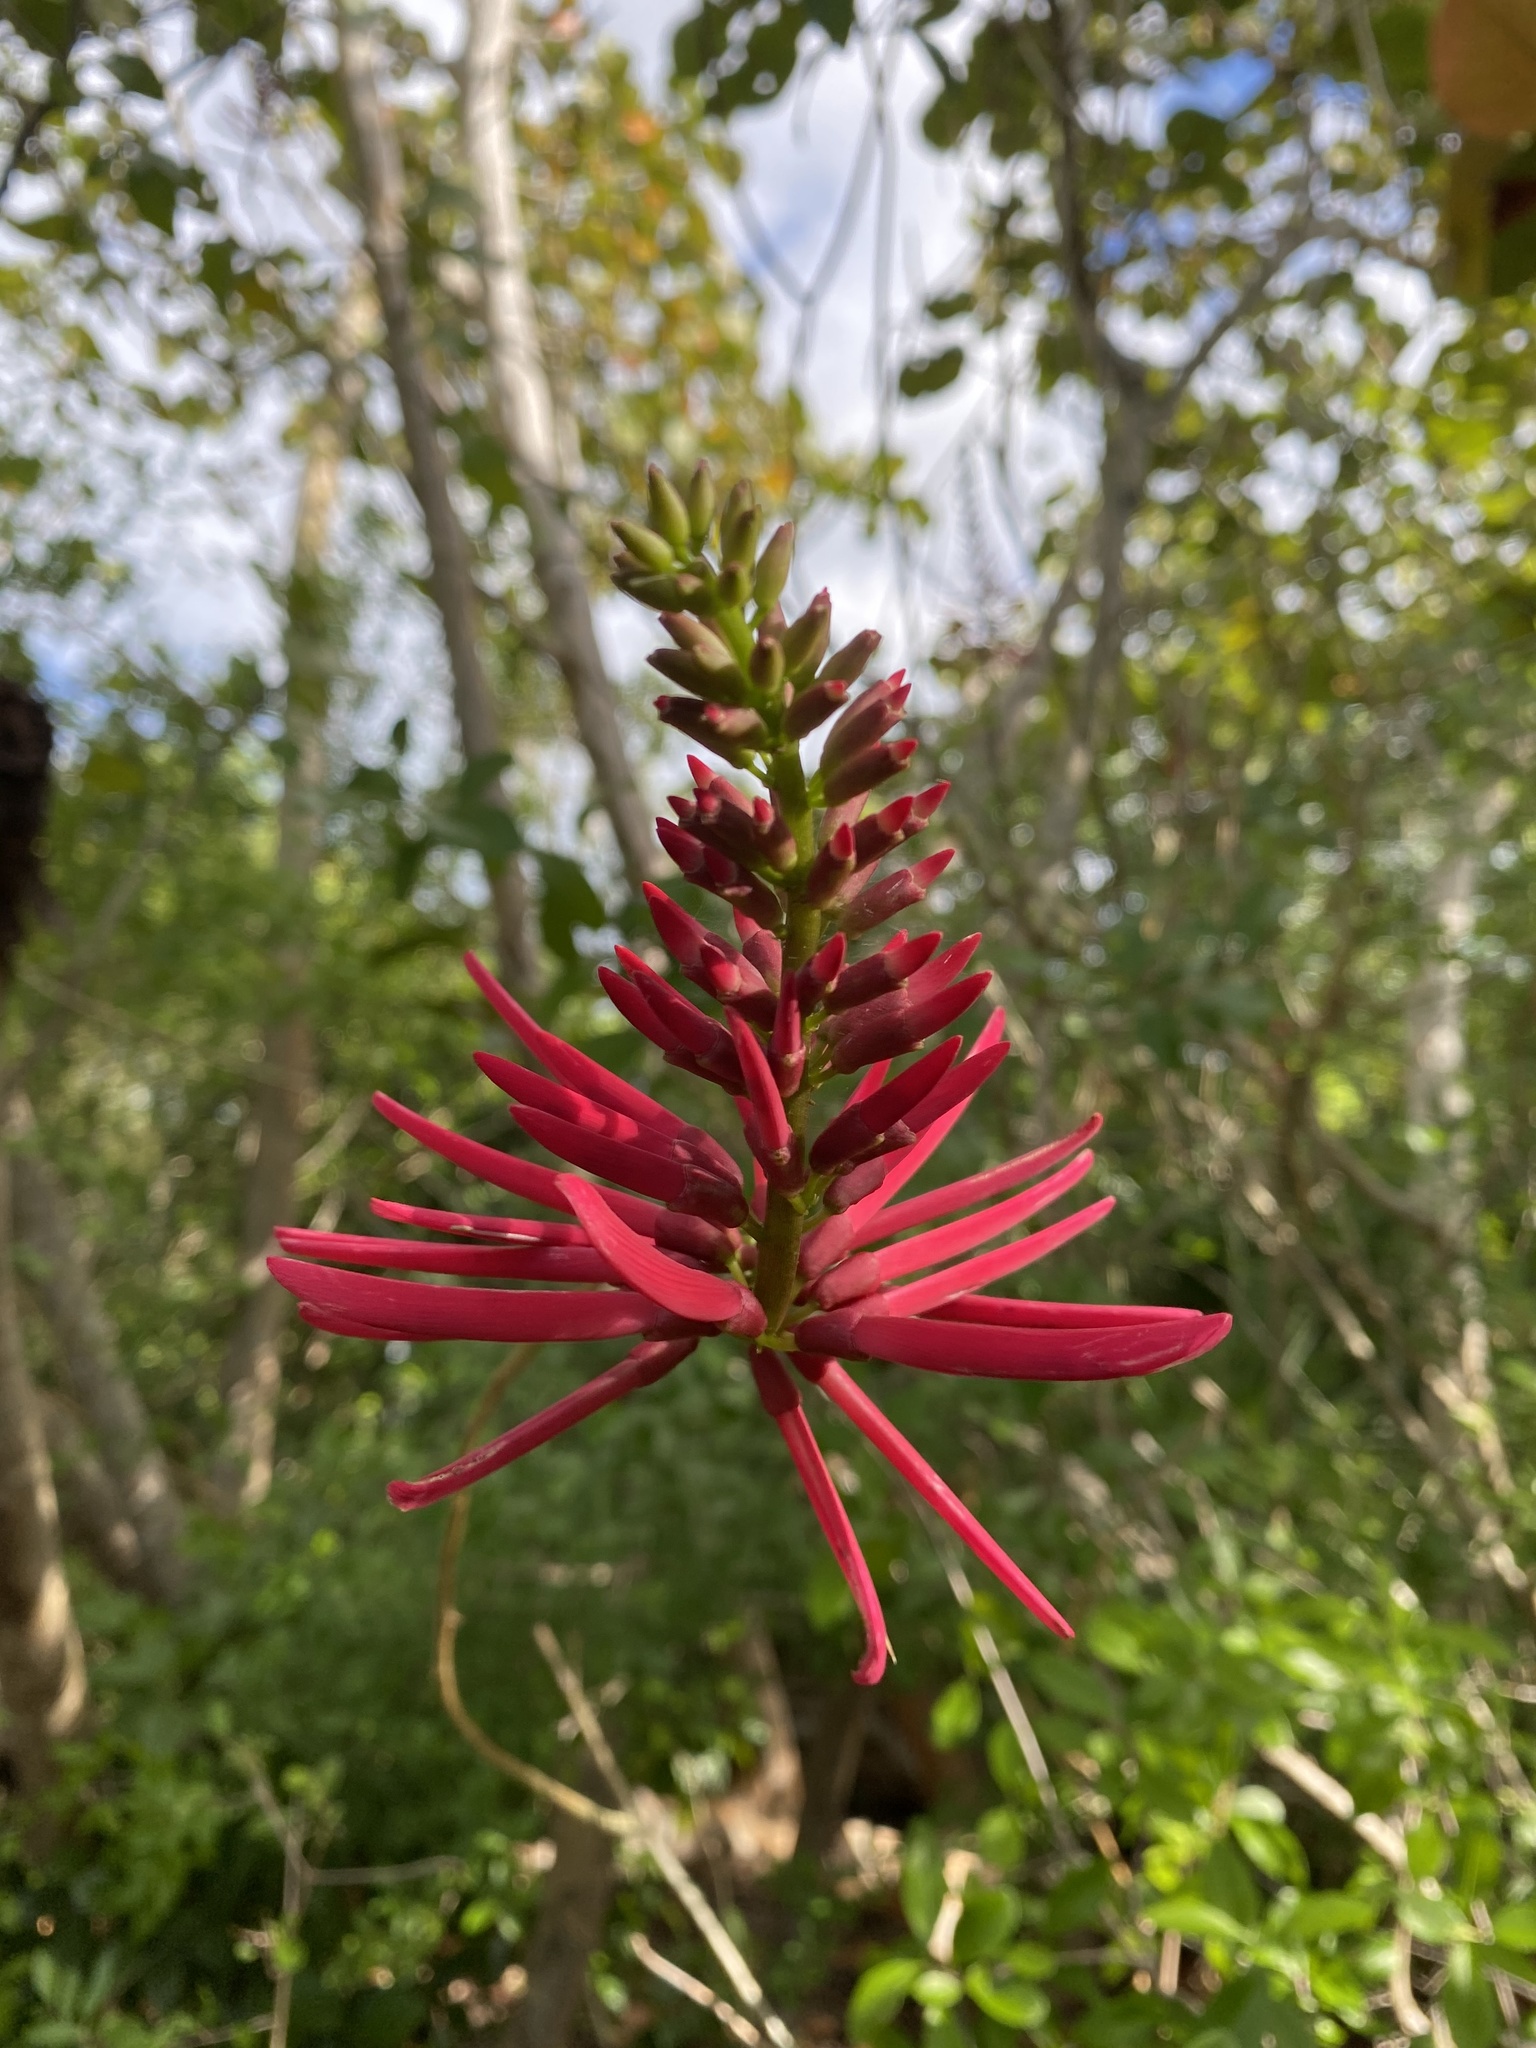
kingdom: Plantae
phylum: Tracheophyta
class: Magnoliopsida
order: Fabales
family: Fabaceae
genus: Erythrina
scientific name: Erythrina herbacea
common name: Coral-bean
